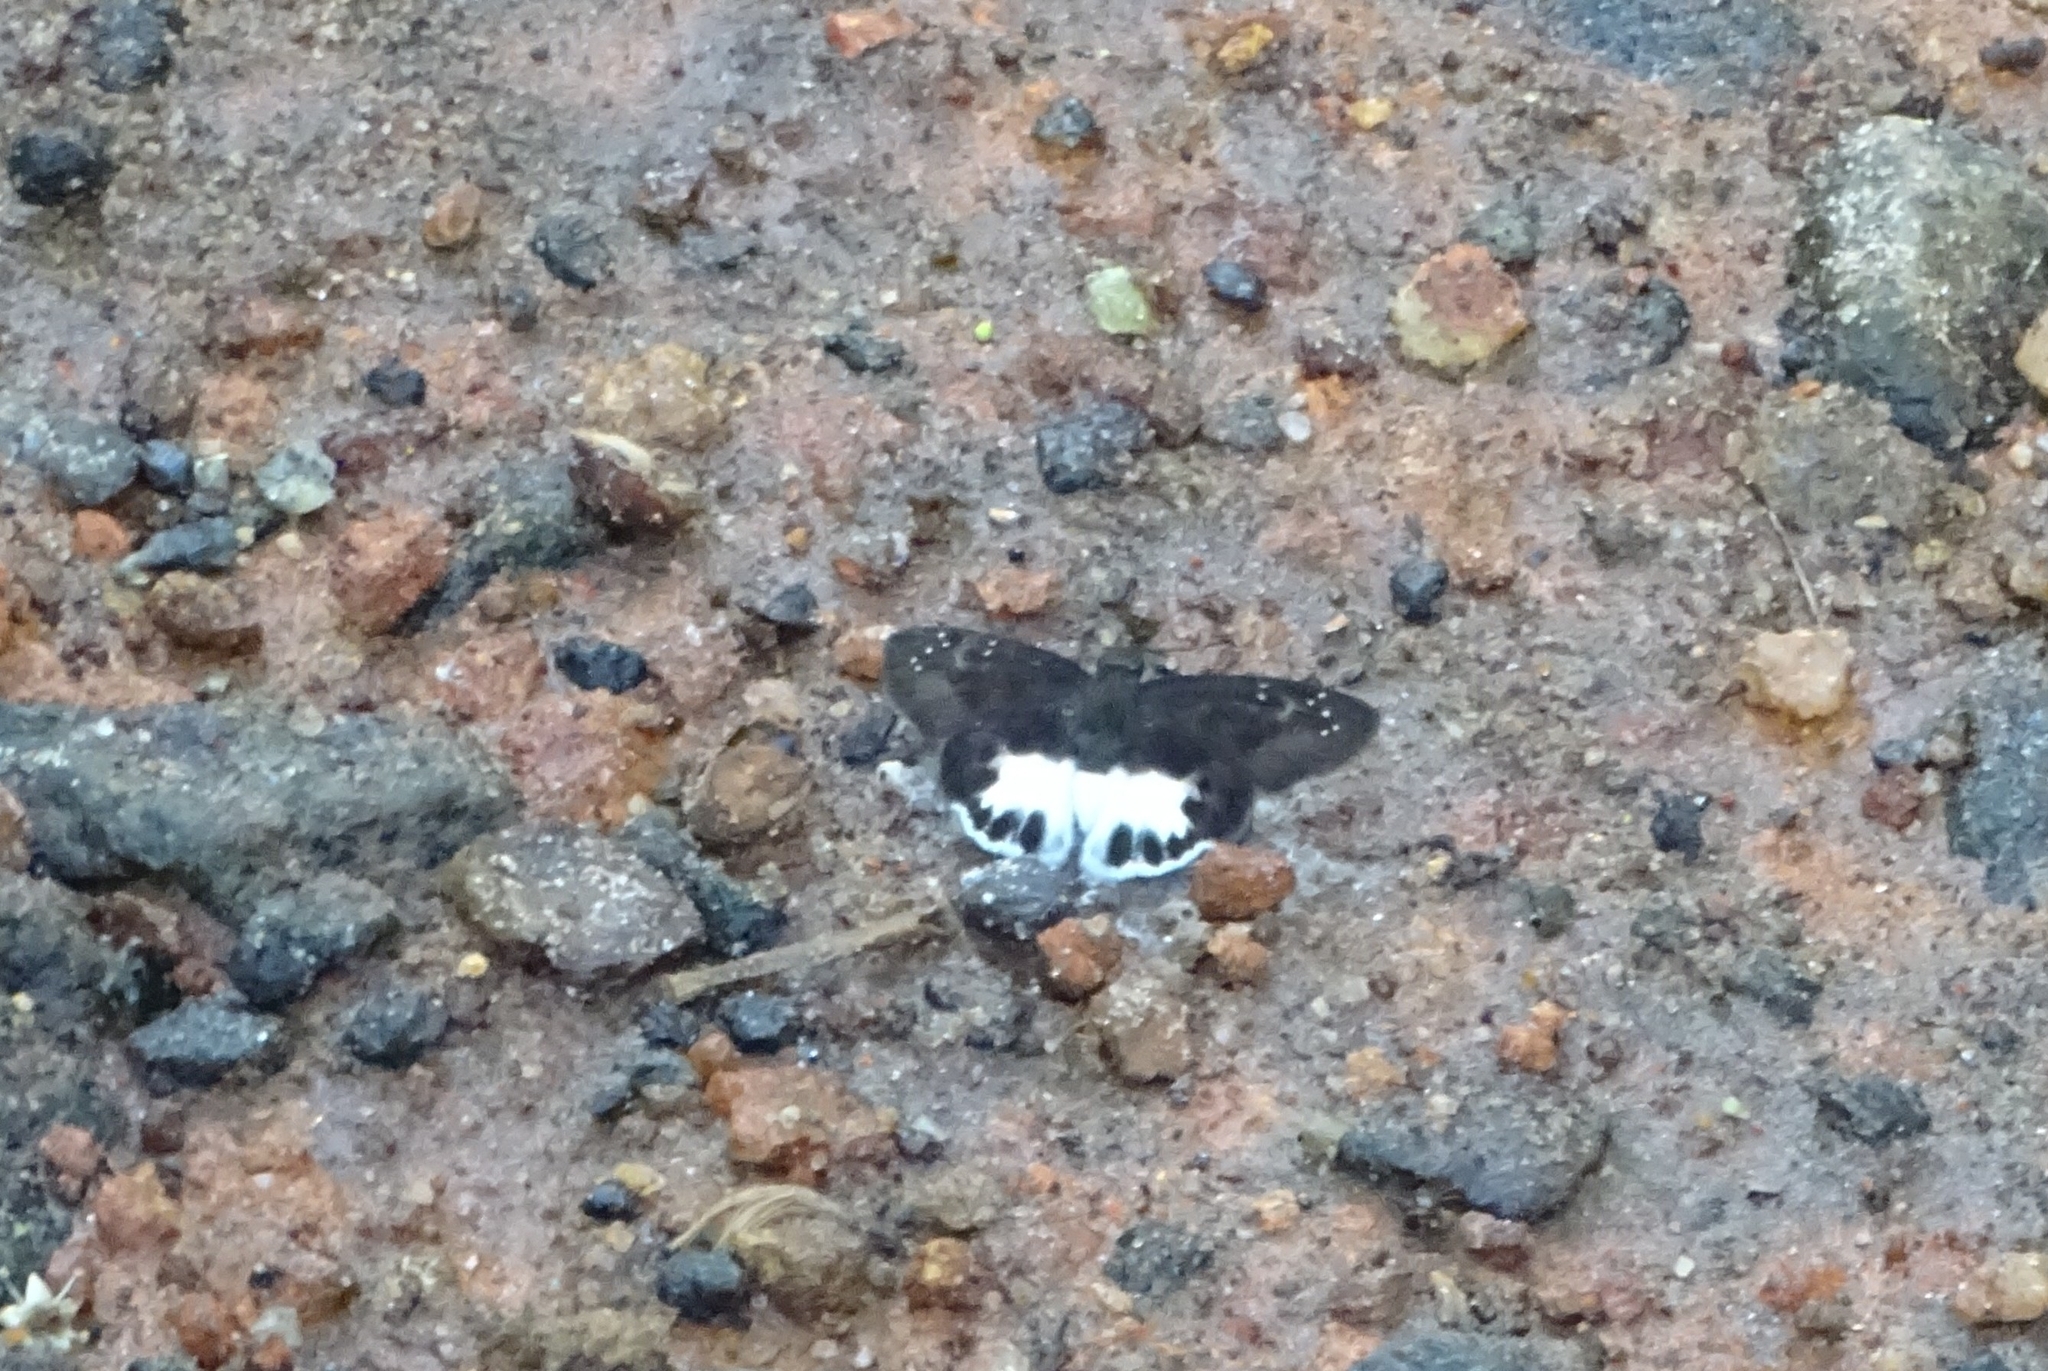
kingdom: Animalia
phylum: Arthropoda
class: Insecta
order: Lepidoptera
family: Hesperiidae
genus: Tagiades
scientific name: Tagiades litigiosa
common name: Water snow flat
